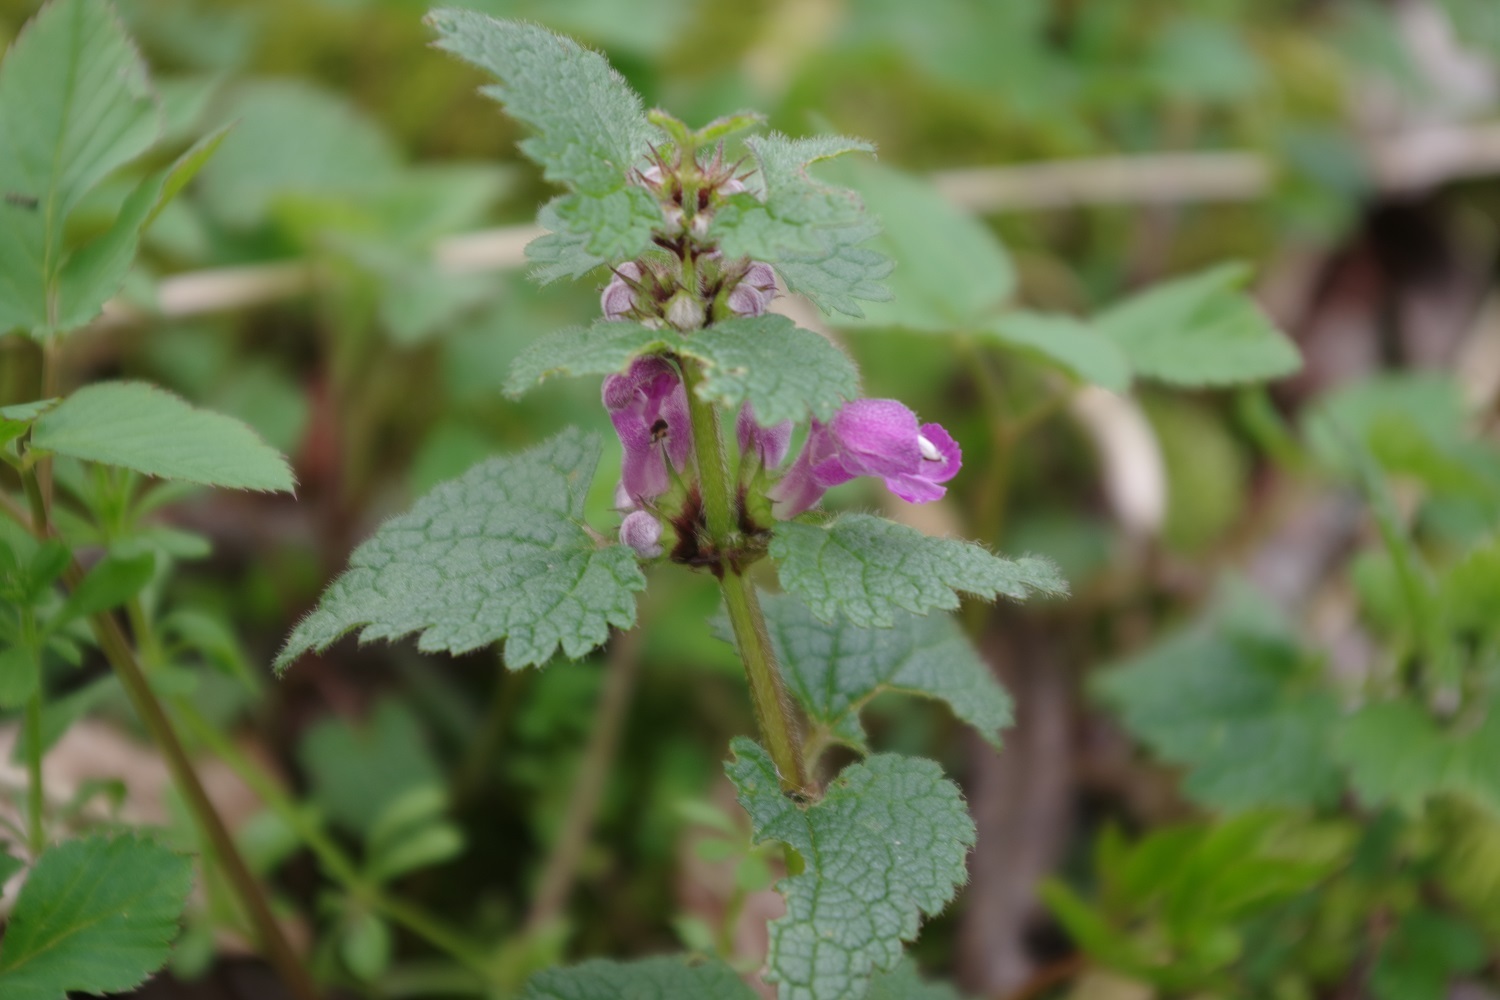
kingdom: Plantae
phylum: Tracheophyta
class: Magnoliopsida
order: Lamiales
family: Lamiaceae
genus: Lamium
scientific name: Lamium maculatum
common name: Spotted dead-nettle
